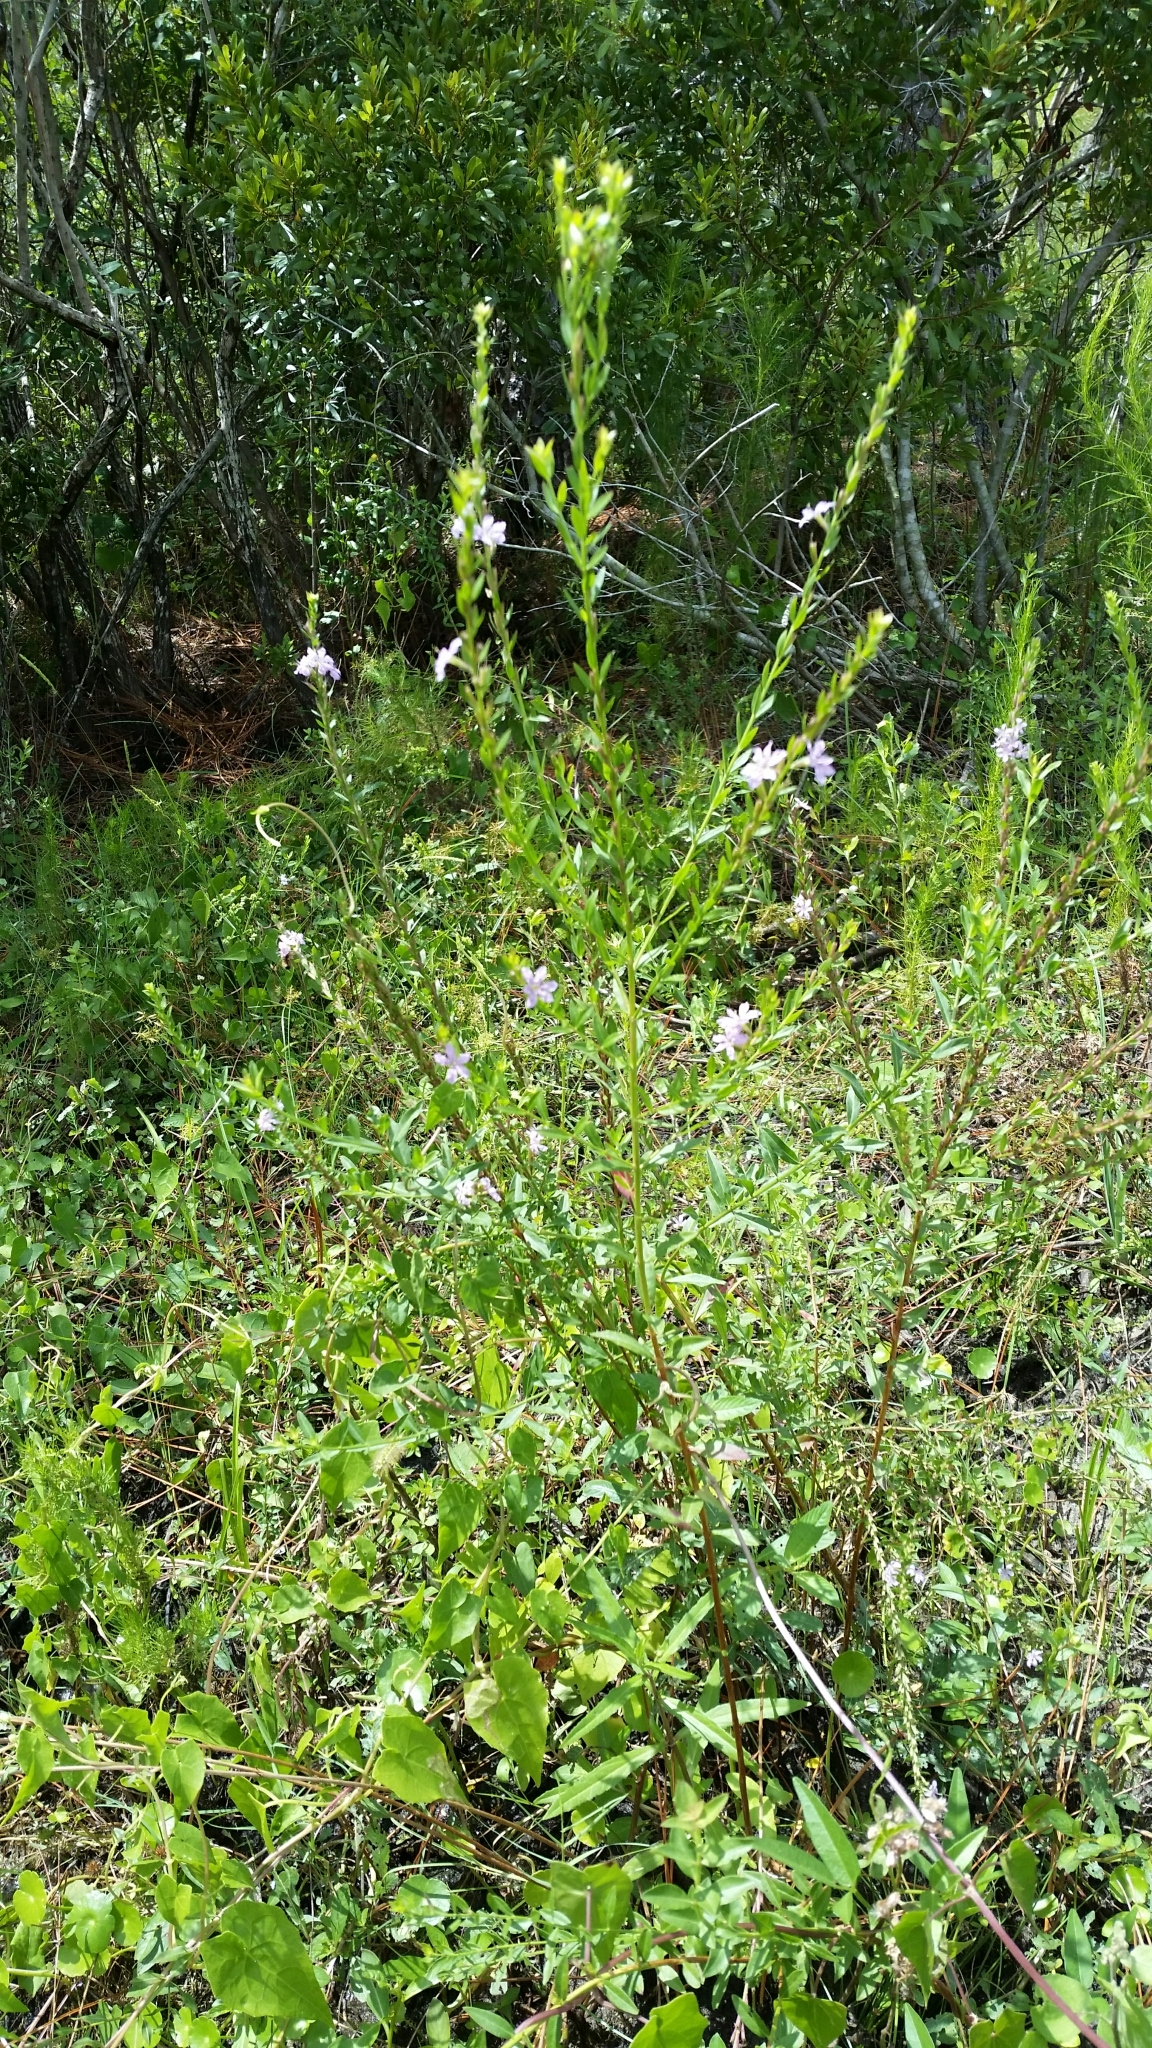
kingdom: Plantae
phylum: Tracheophyta
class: Magnoliopsida
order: Myrtales
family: Lythraceae
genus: Lythrum
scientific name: Lythrum alatum
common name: Winged loosestrife
